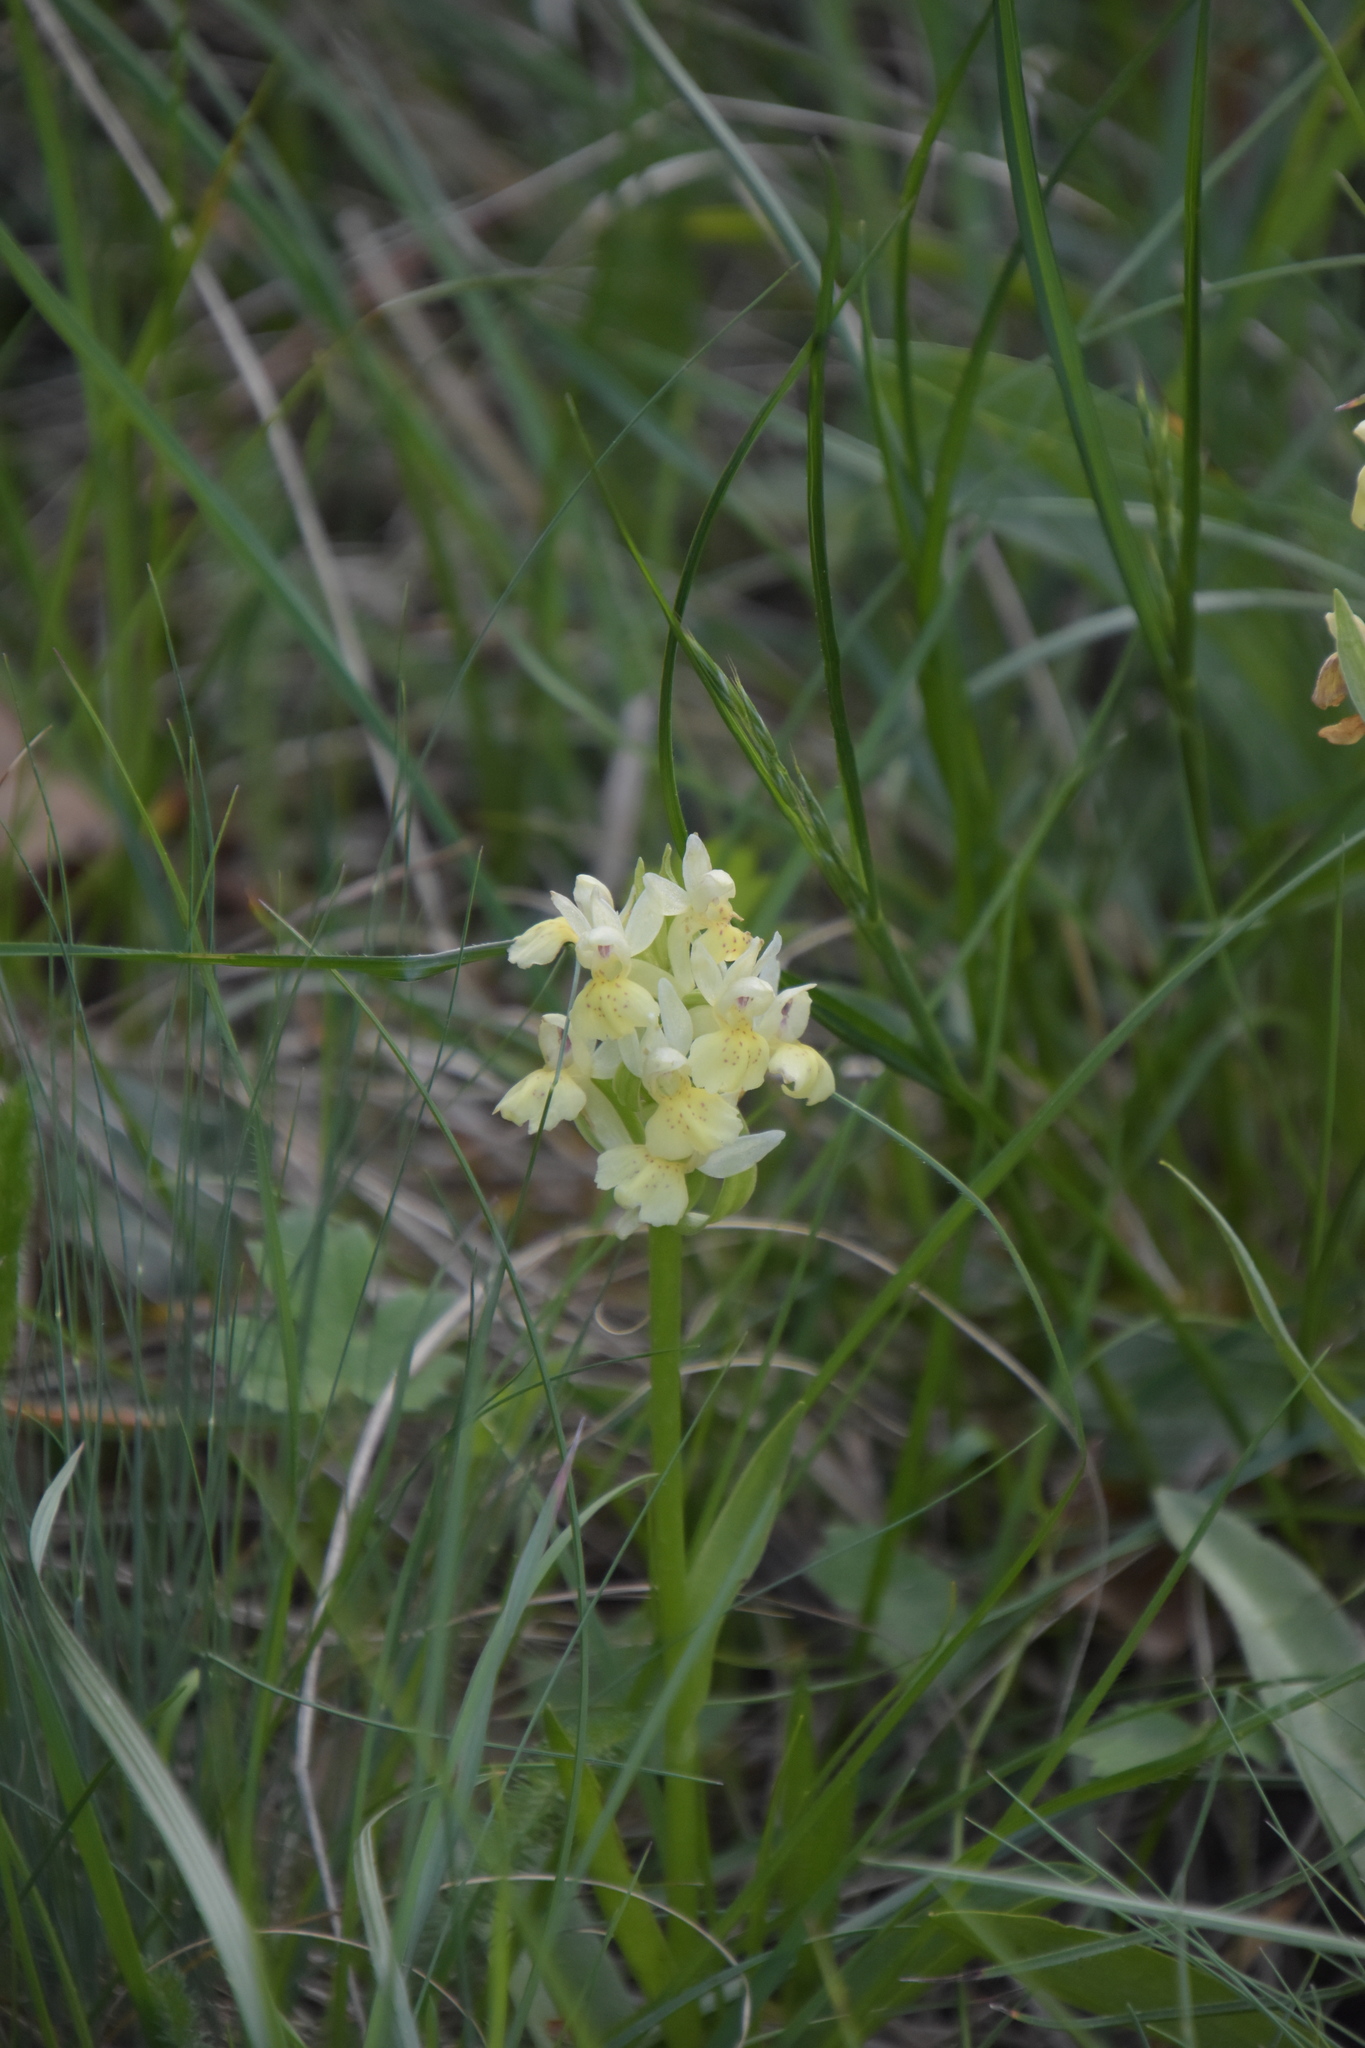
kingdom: Plantae
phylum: Tracheophyta
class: Liliopsida
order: Asparagales
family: Orchidaceae
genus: Dactylorhiza
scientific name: Dactylorhiza sambucina
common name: Elder-flowered orchid
